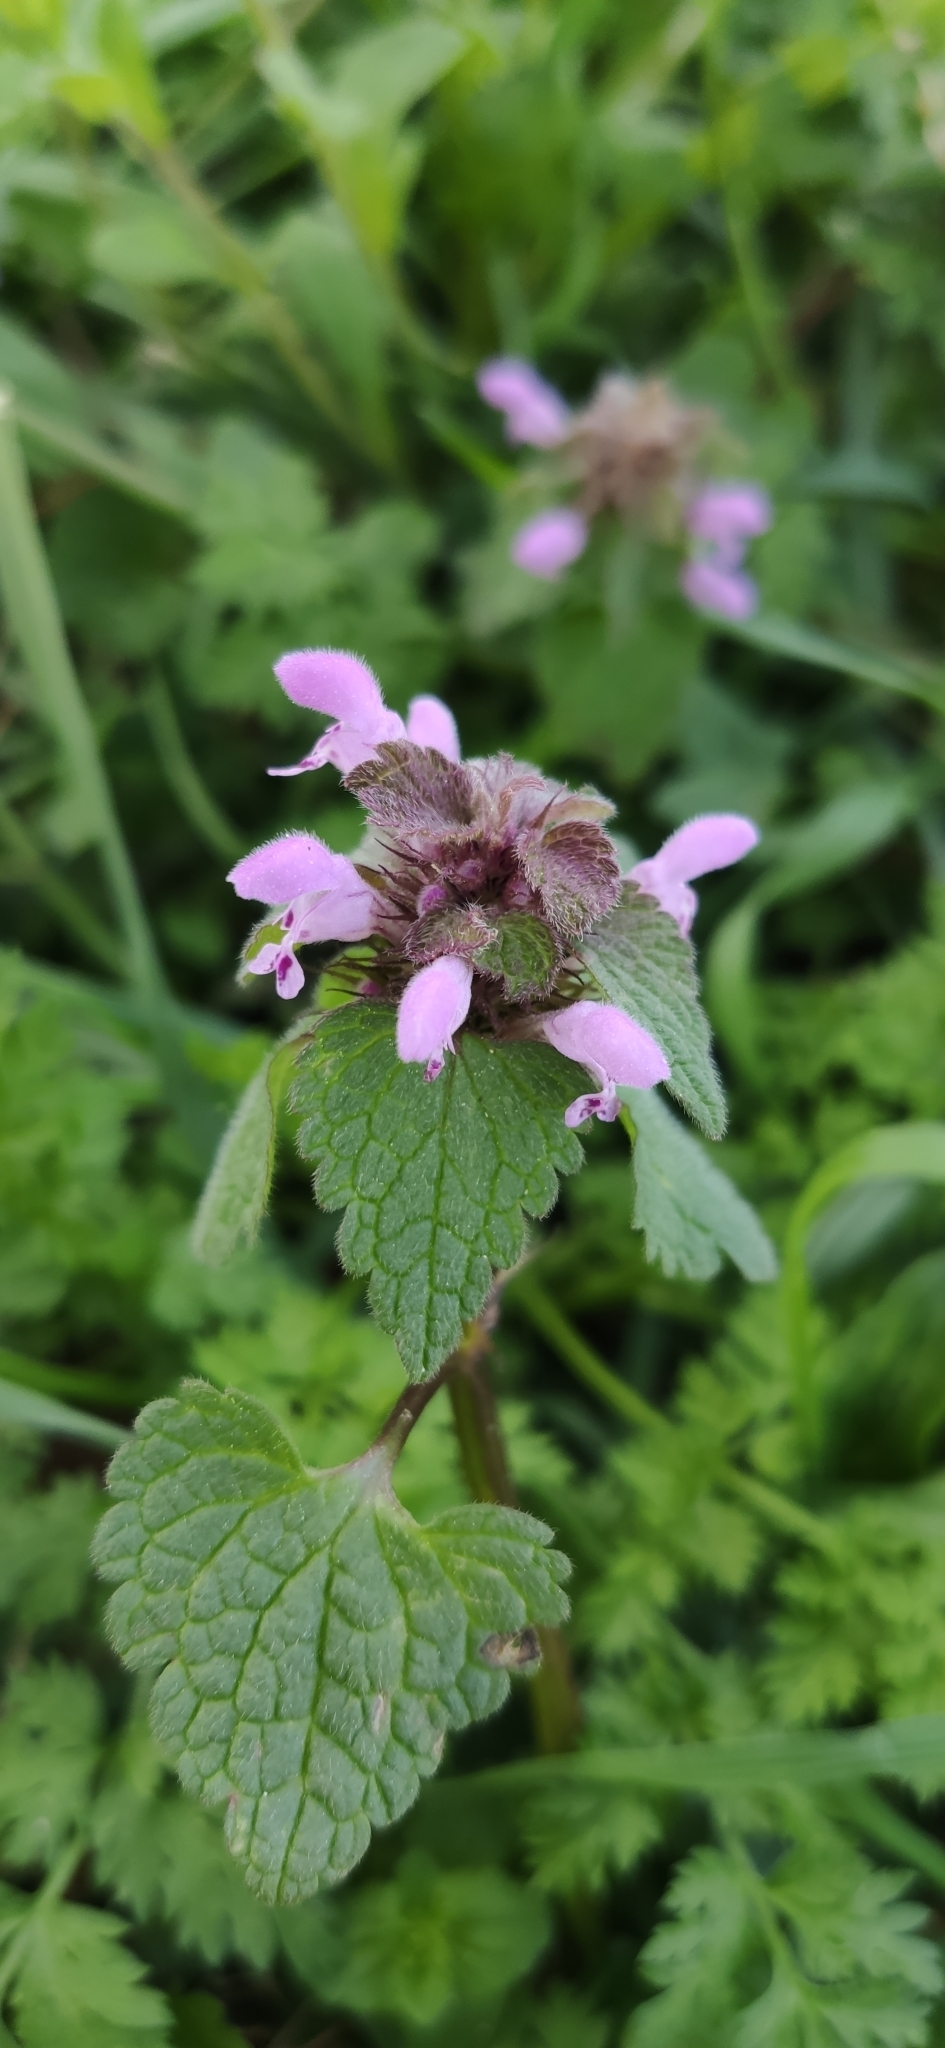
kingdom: Plantae
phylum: Tracheophyta
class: Magnoliopsida
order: Lamiales
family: Lamiaceae
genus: Lamium
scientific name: Lamium purpureum
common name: Red dead-nettle
